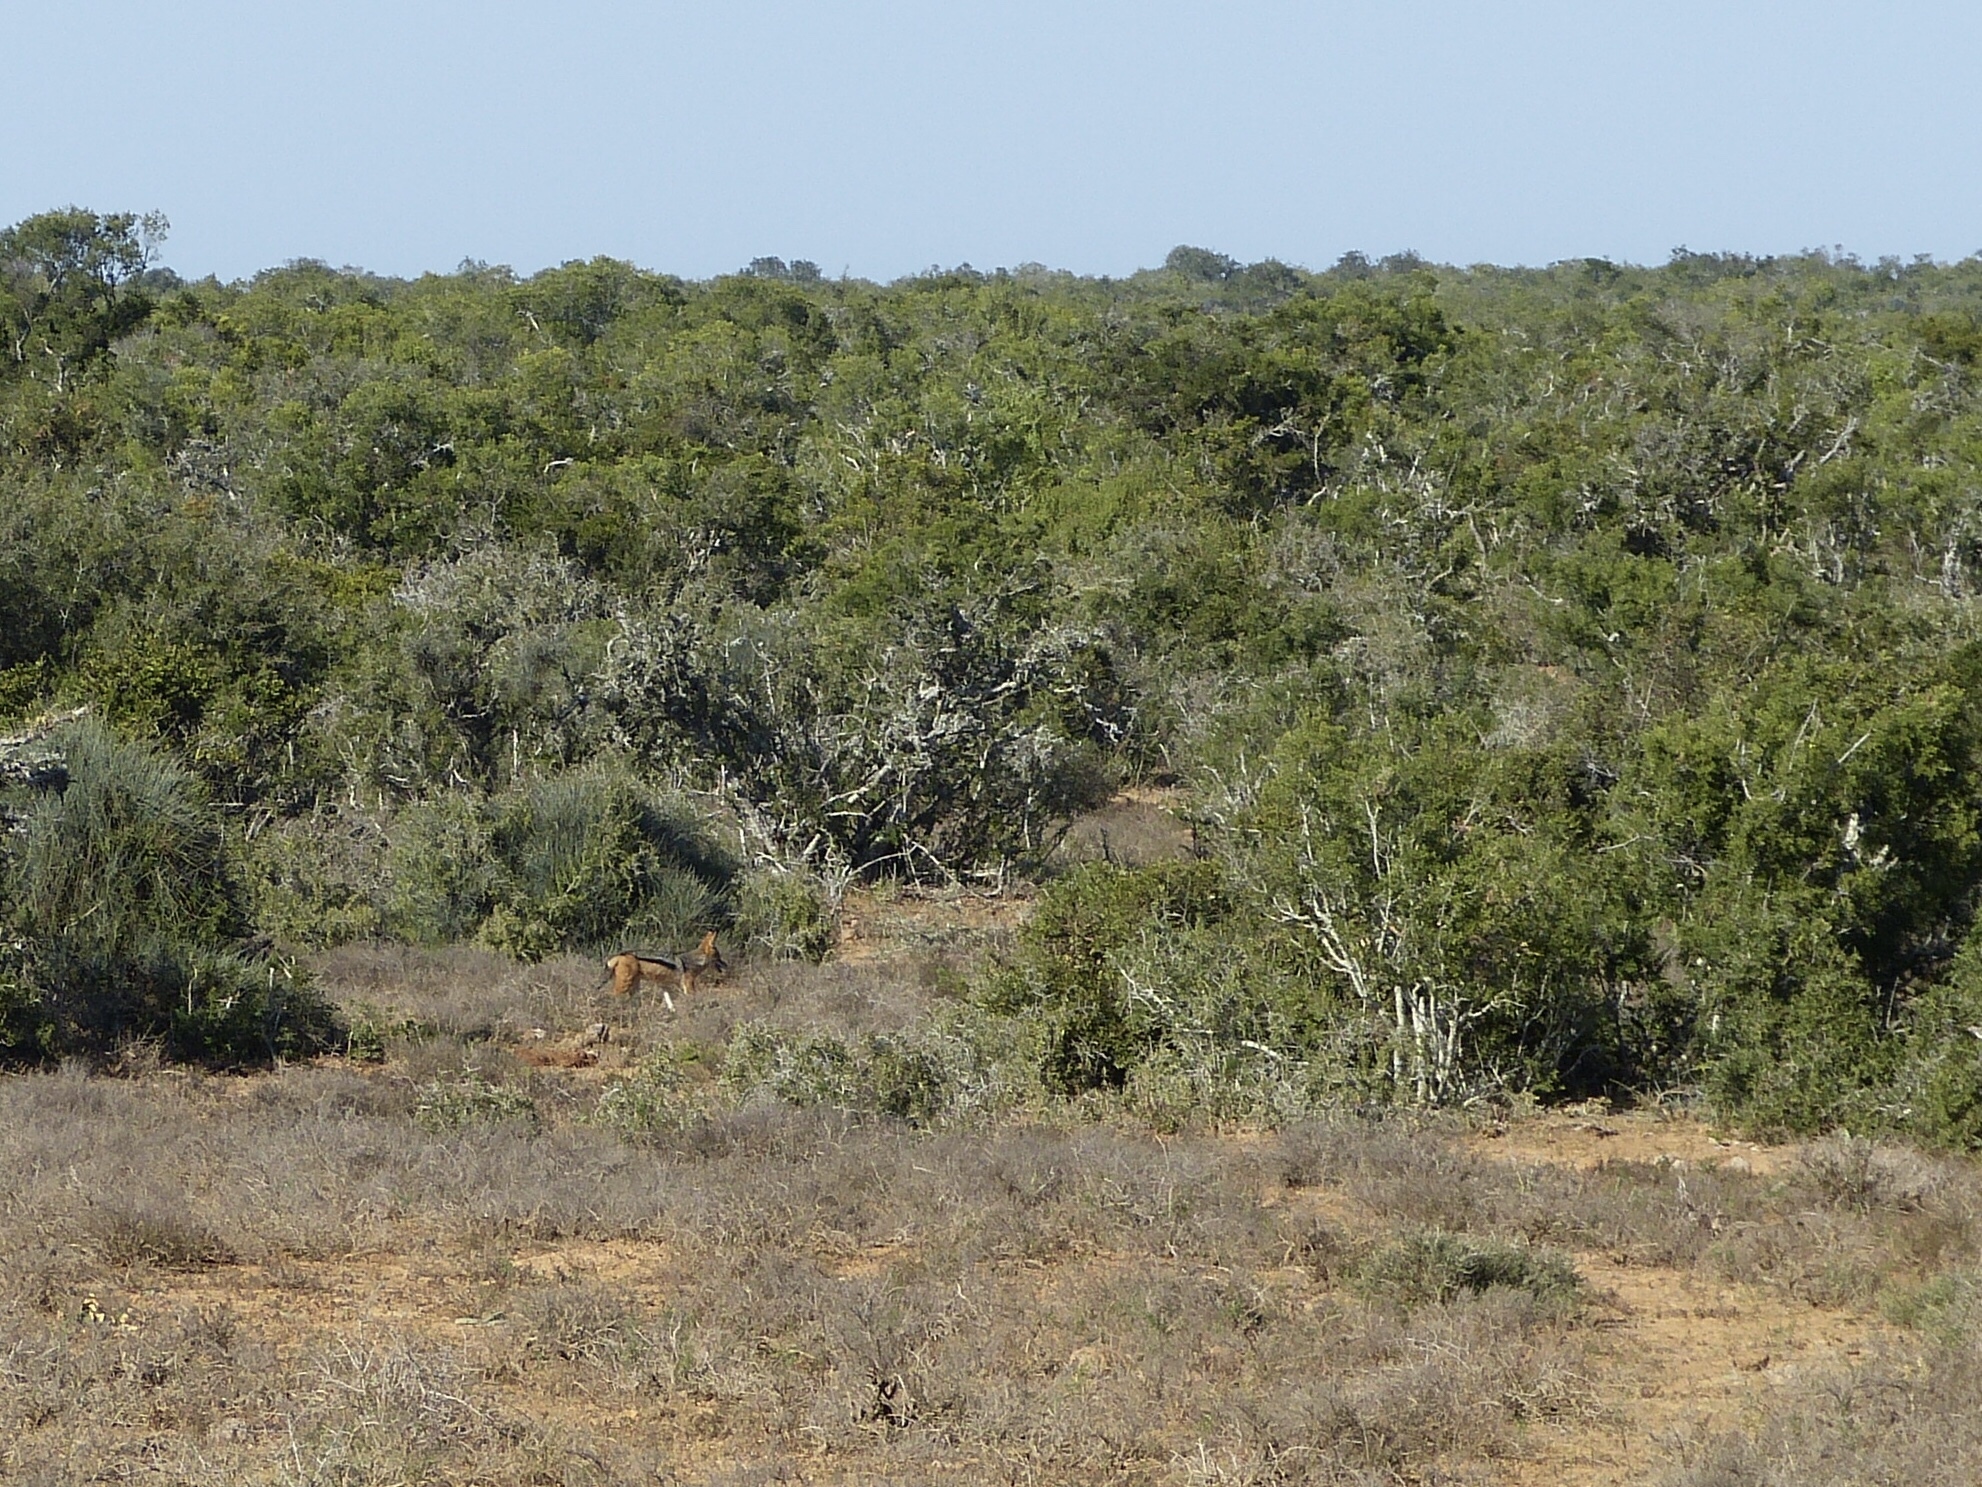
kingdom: Animalia
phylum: Chordata
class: Mammalia
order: Carnivora
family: Canidae
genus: Lupulella
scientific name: Lupulella
